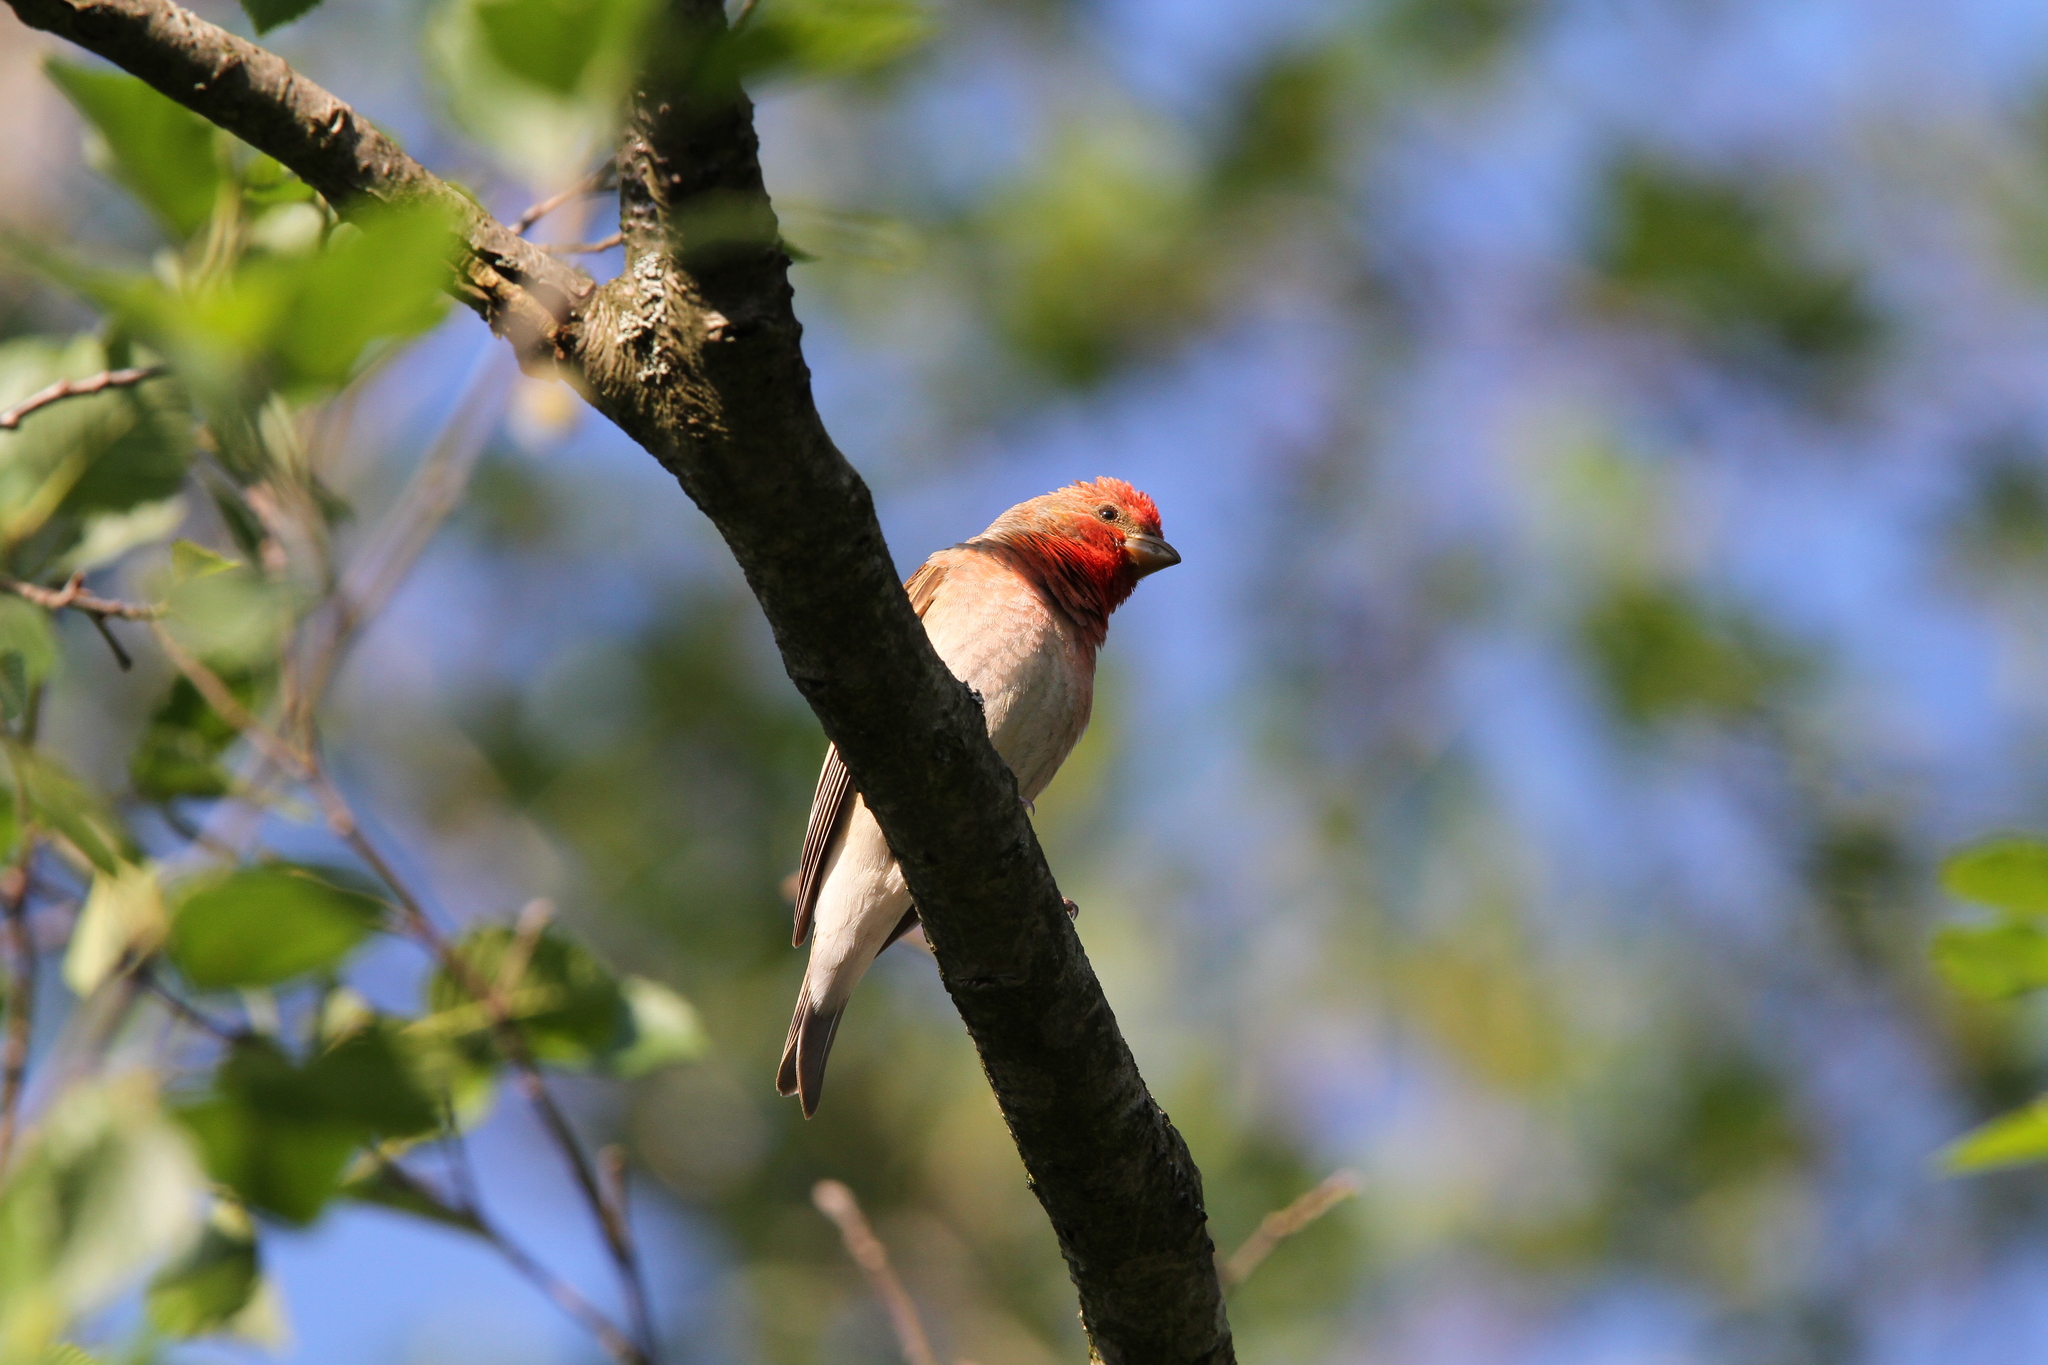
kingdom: Animalia
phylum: Chordata
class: Aves
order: Passeriformes
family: Fringillidae
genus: Carpodacus
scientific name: Carpodacus erythrinus
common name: Common rosefinch
